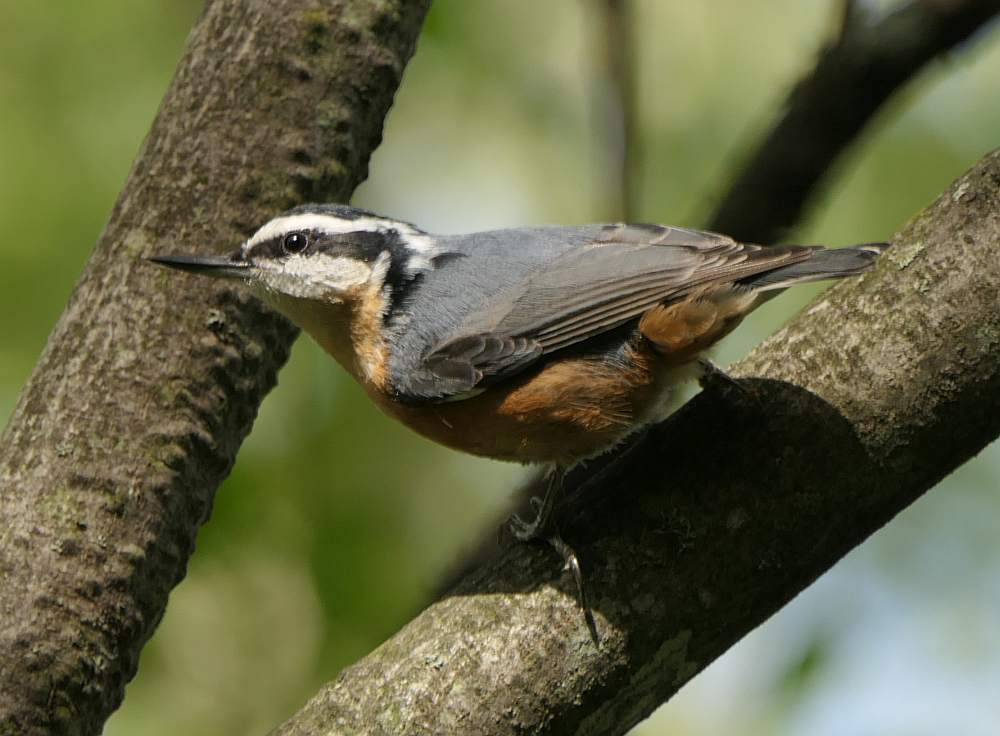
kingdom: Animalia
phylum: Chordata
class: Aves
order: Passeriformes
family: Sittidae
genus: Sitta
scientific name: Sitta canadensis
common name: Red-breasted nuthatch
